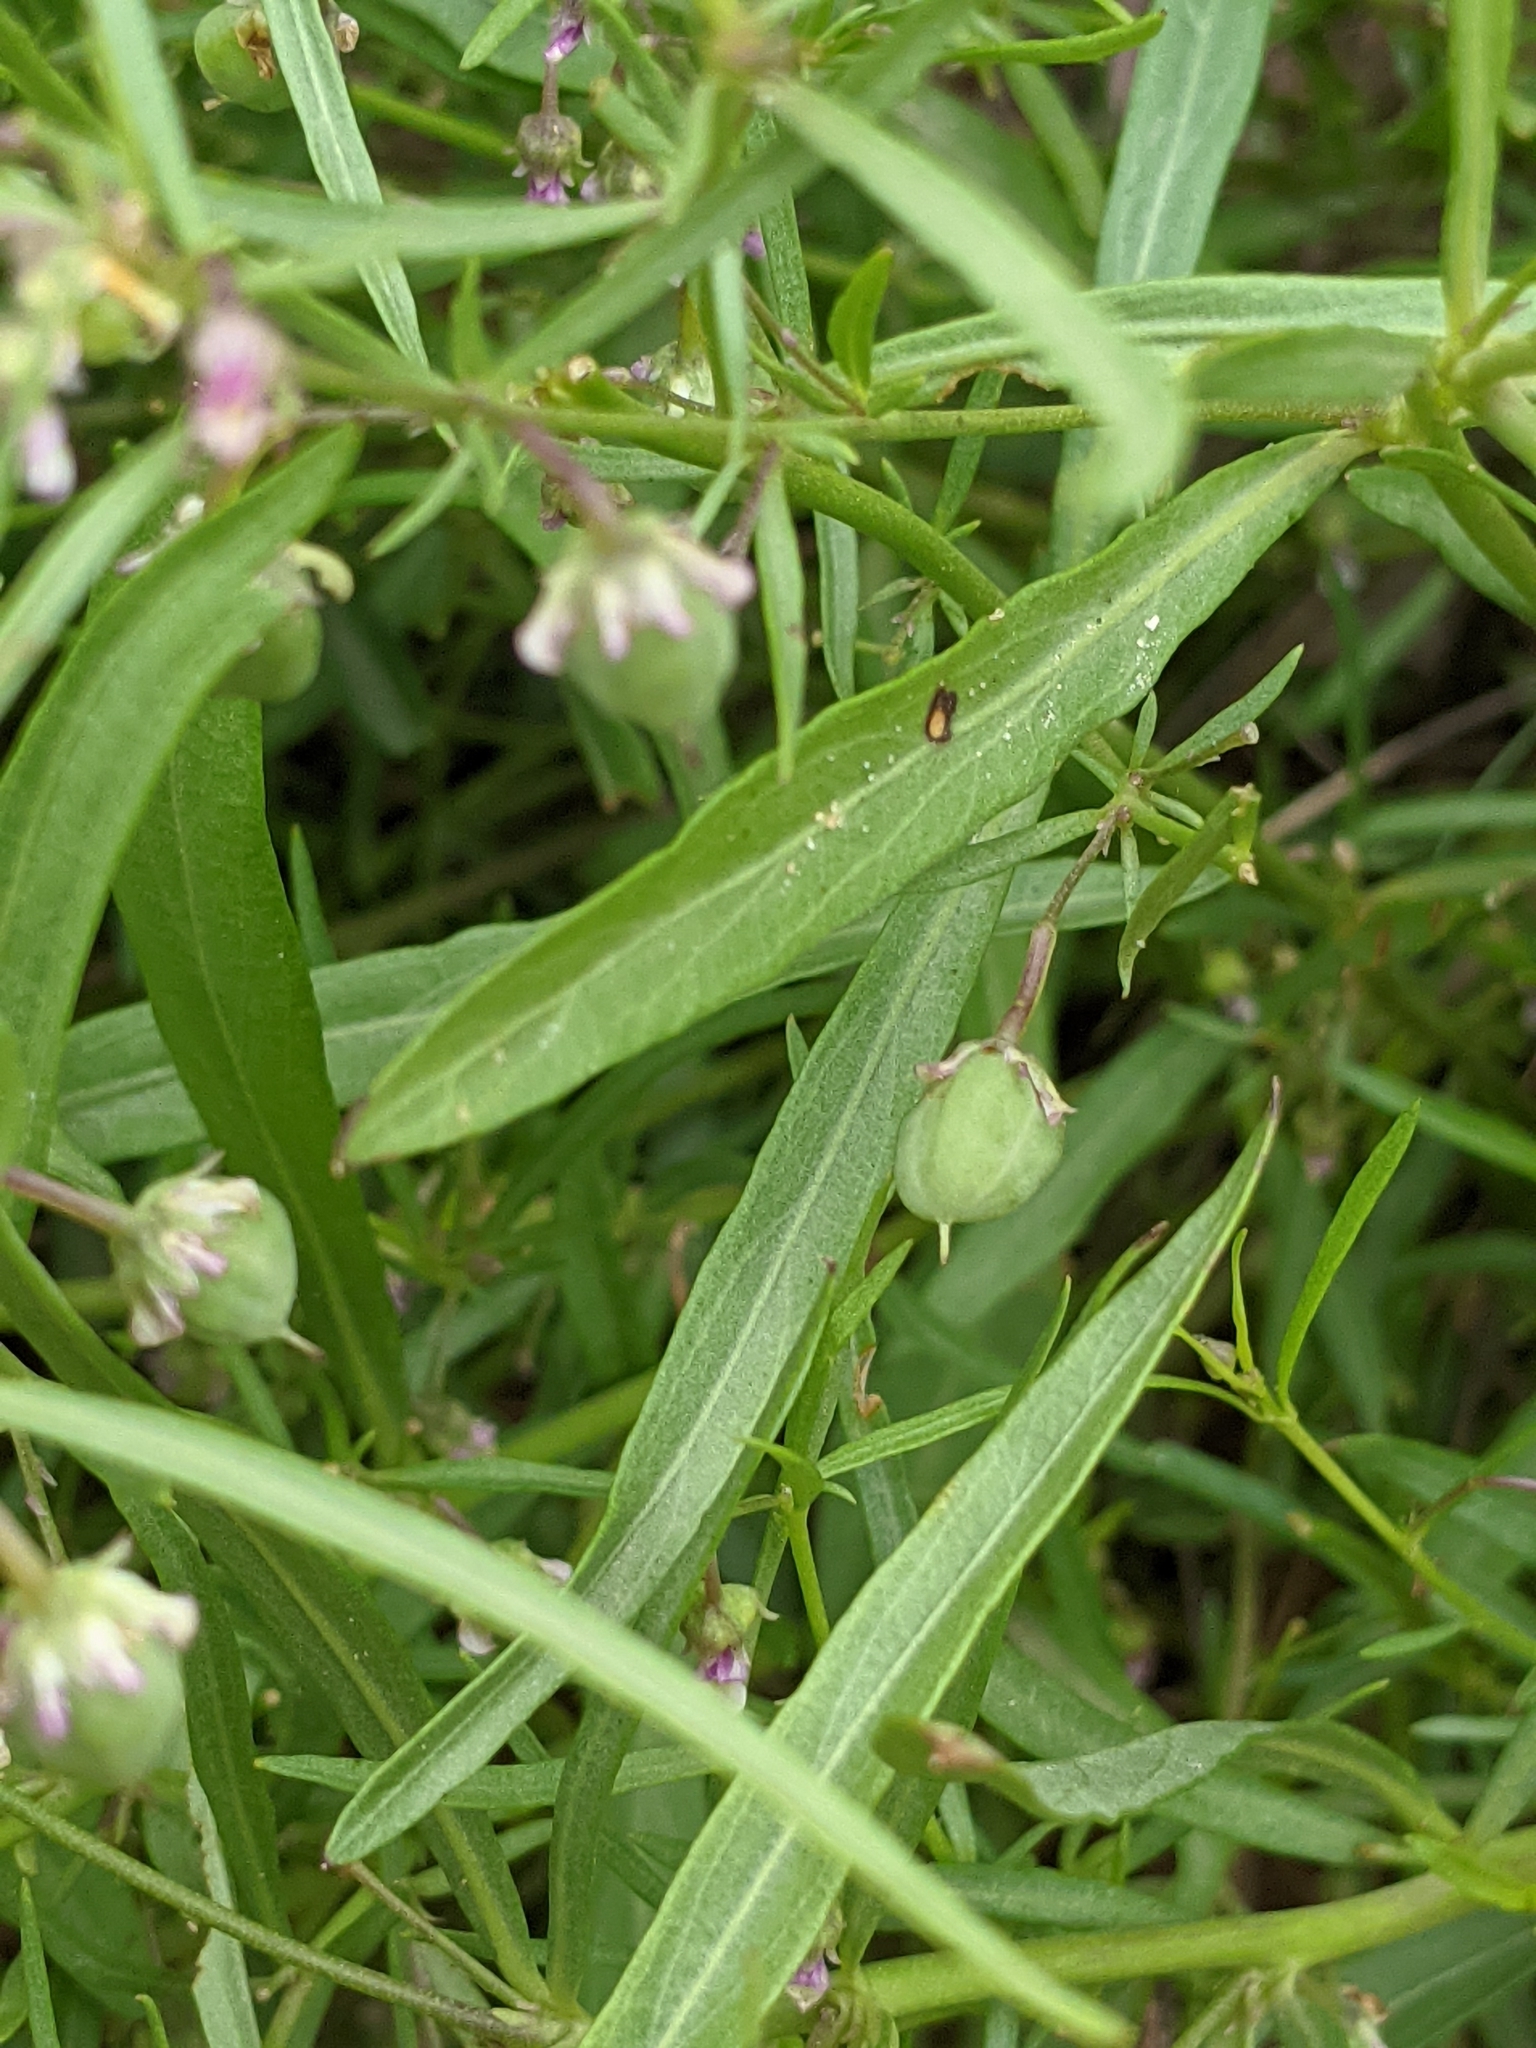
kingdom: Plantae
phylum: Tracheophyta
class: Magnoliopsida
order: Malpighiales
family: Violaceae
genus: Pombalia
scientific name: Pombalia verticillata
